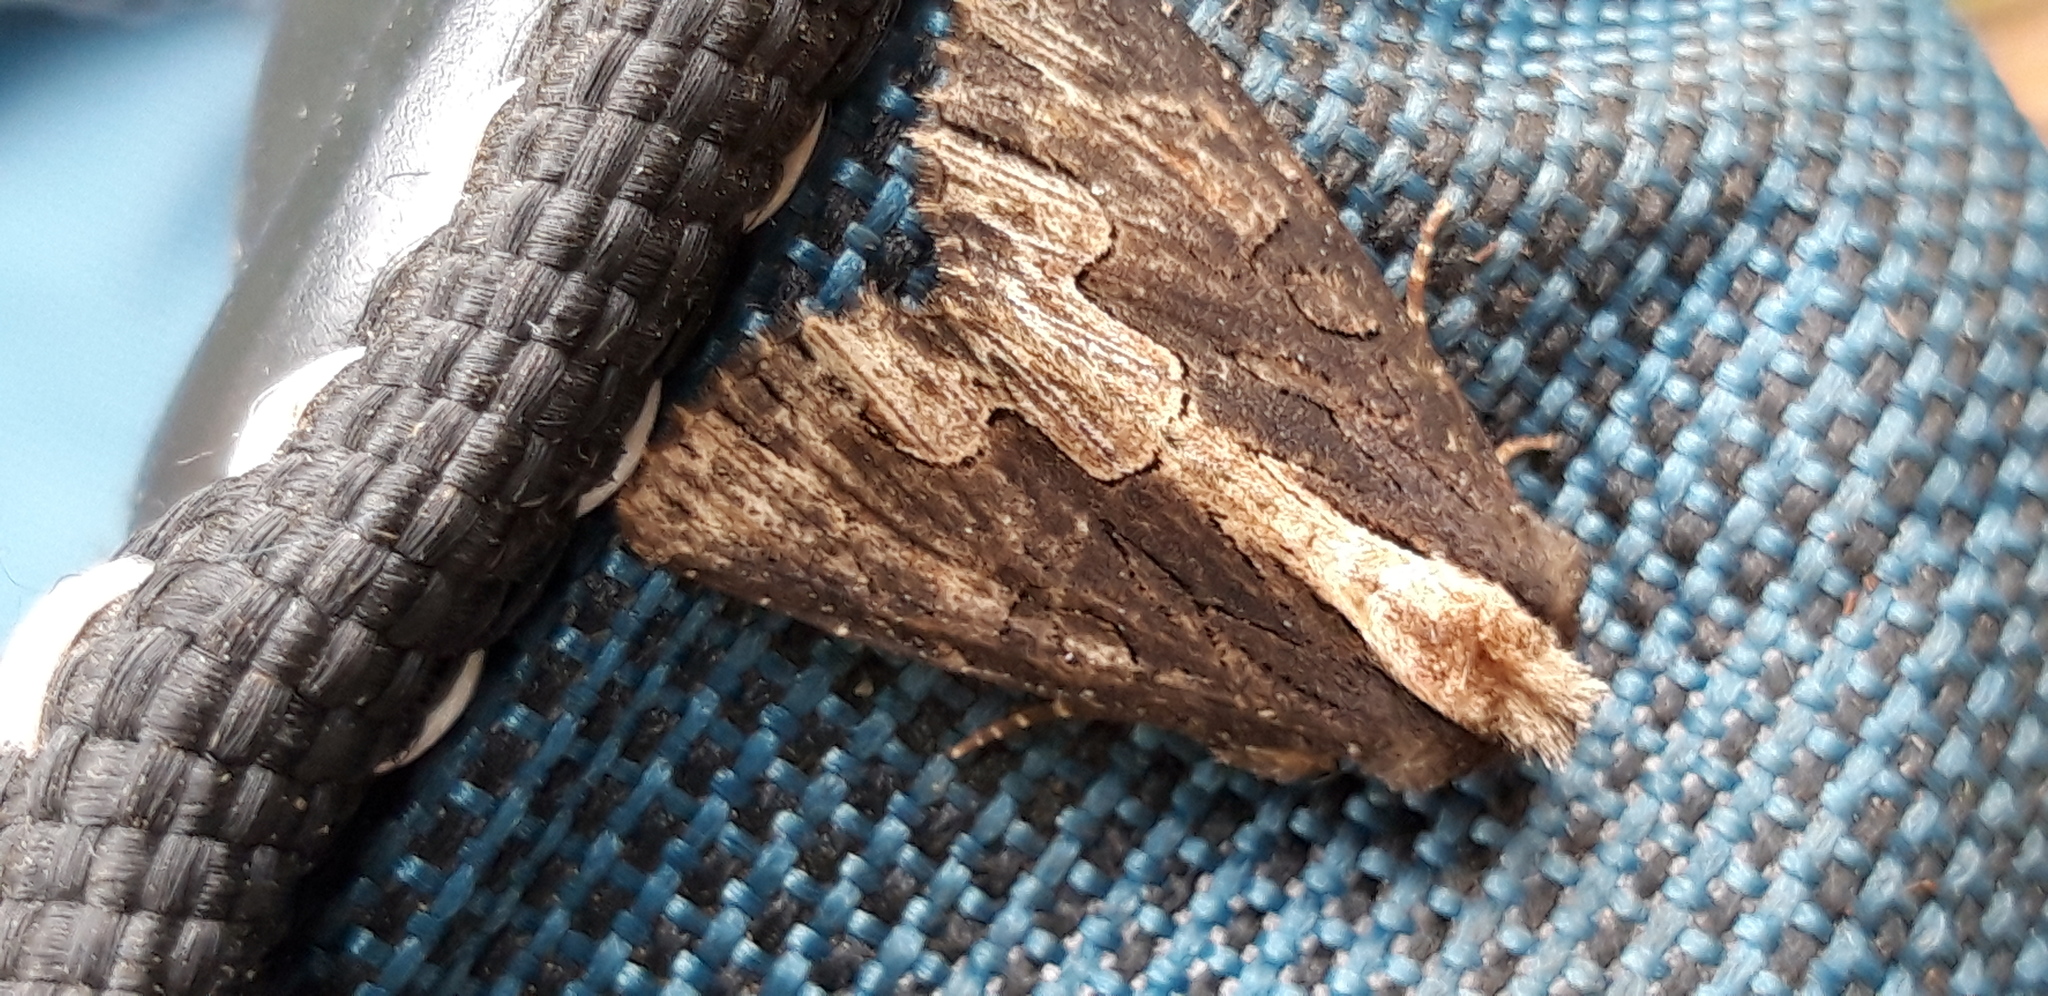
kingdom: Animalia
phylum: Arthropoda
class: Insecta
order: Lepidoptera
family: Noctuidae
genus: Dypterygia
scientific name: Dypterygia scabriuscula
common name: Bird's wing
